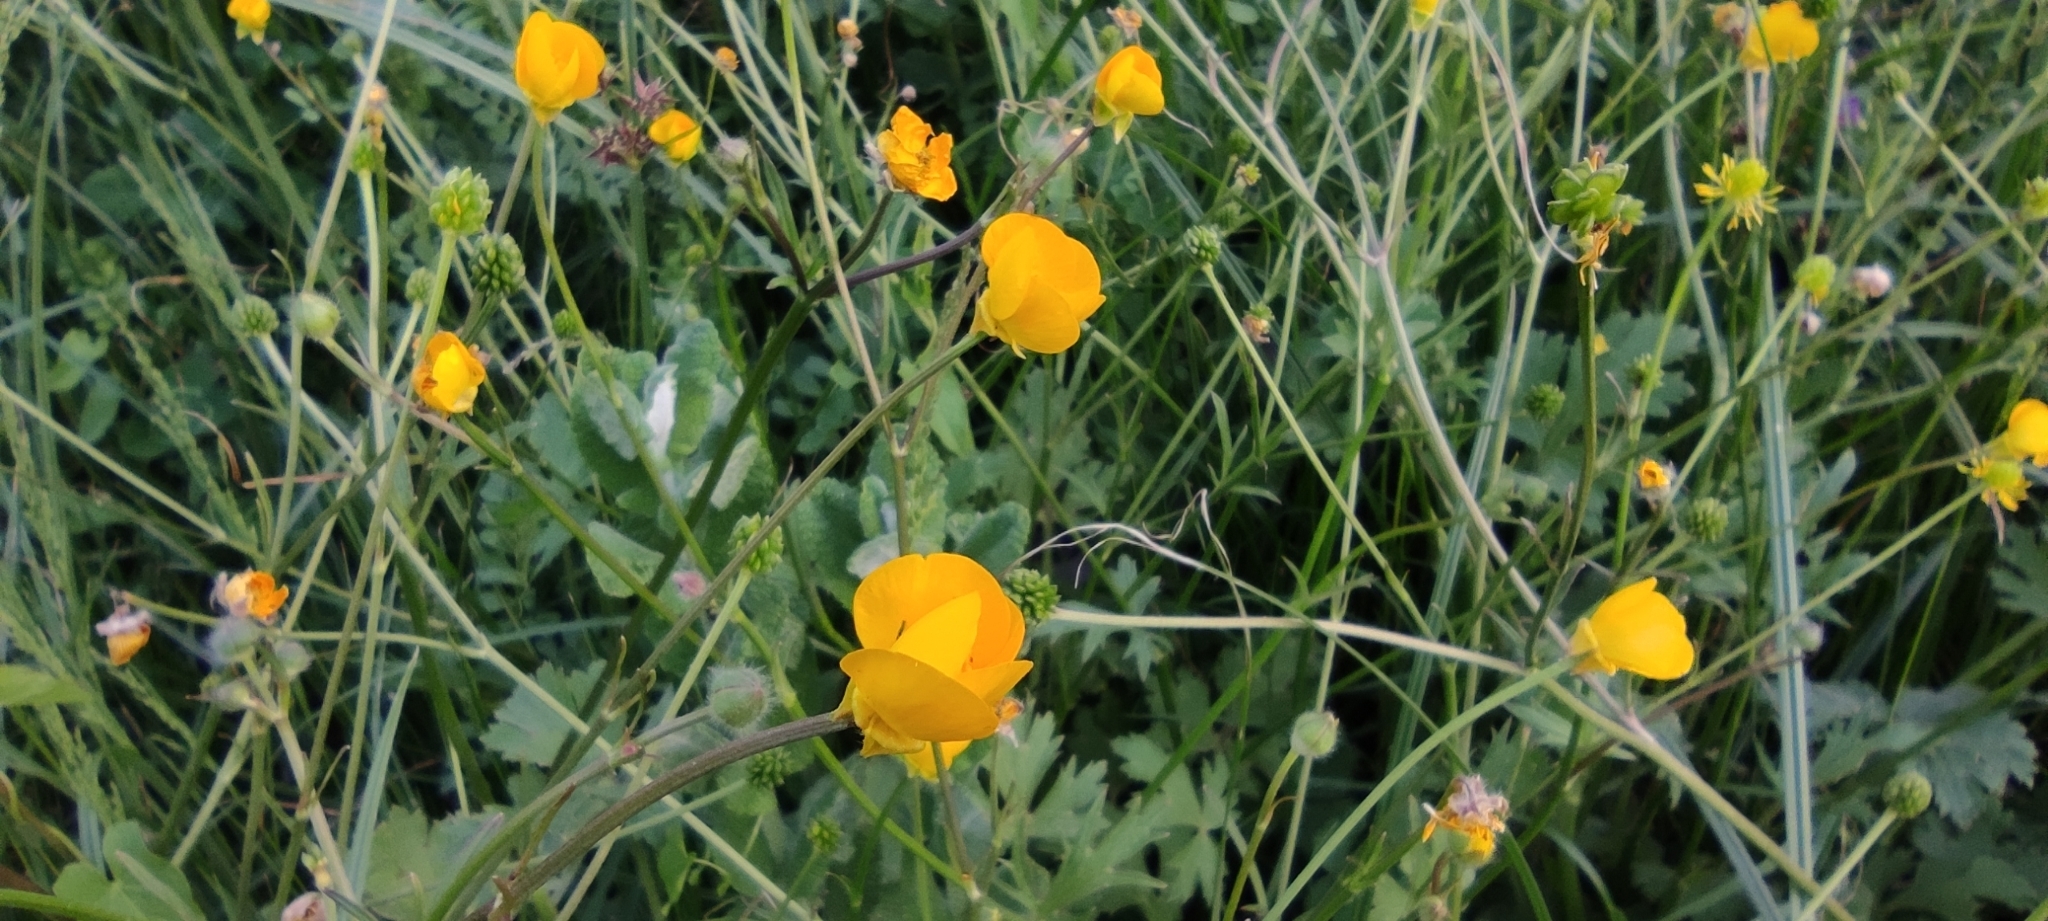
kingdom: Plantae
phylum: Tracheophyta
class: Magnoliopsida
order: Ranunculales
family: Ranunculaceae
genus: Ranunculus
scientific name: Ranunculus bulbosus
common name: Bulbous buttercup
